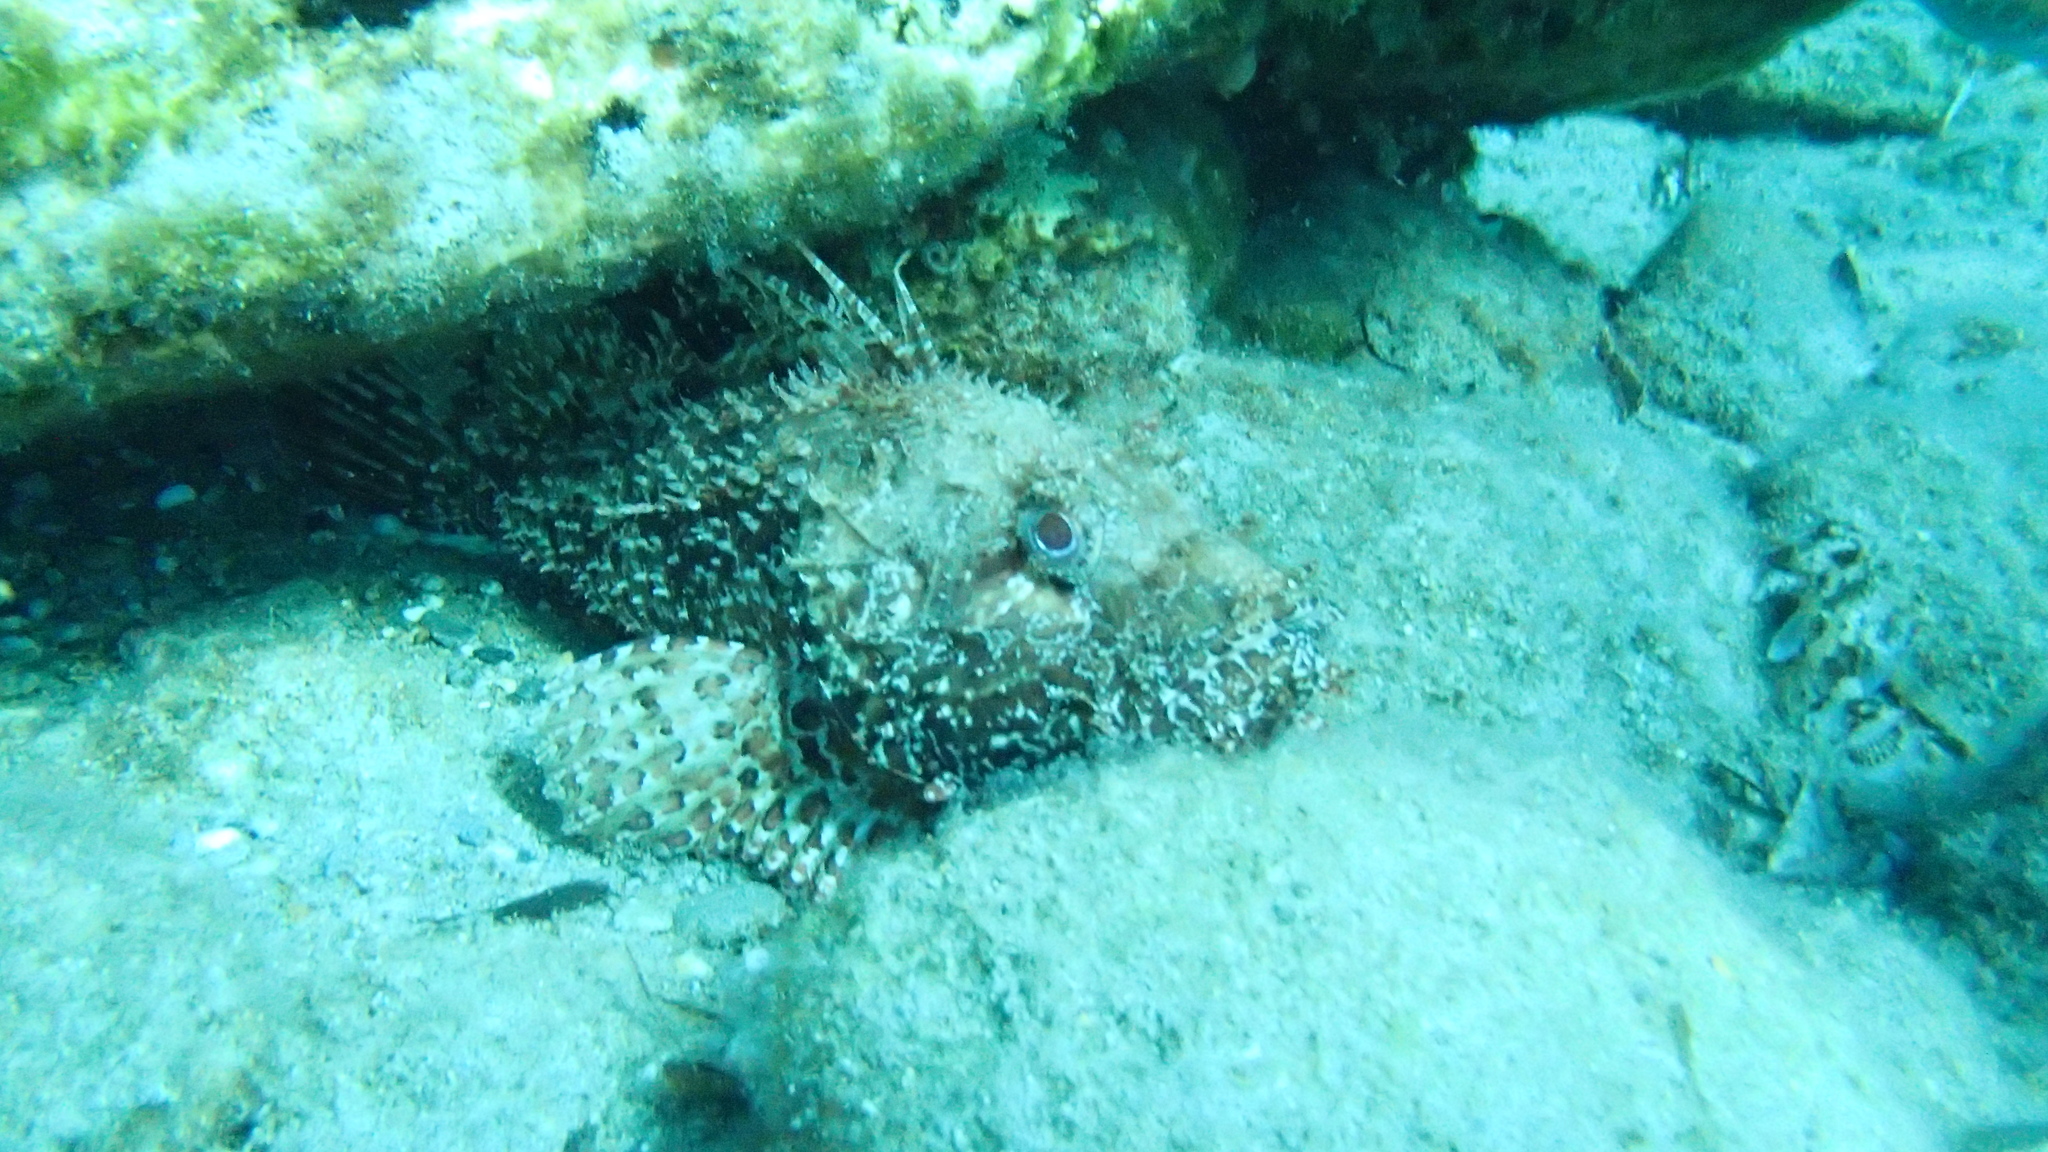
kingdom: Animalia
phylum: Chordata
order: Scorpaeniformes
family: Scorpaenidae
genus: Scorpaena
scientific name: Scorpaena scrofa
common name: Red scorpionfish
